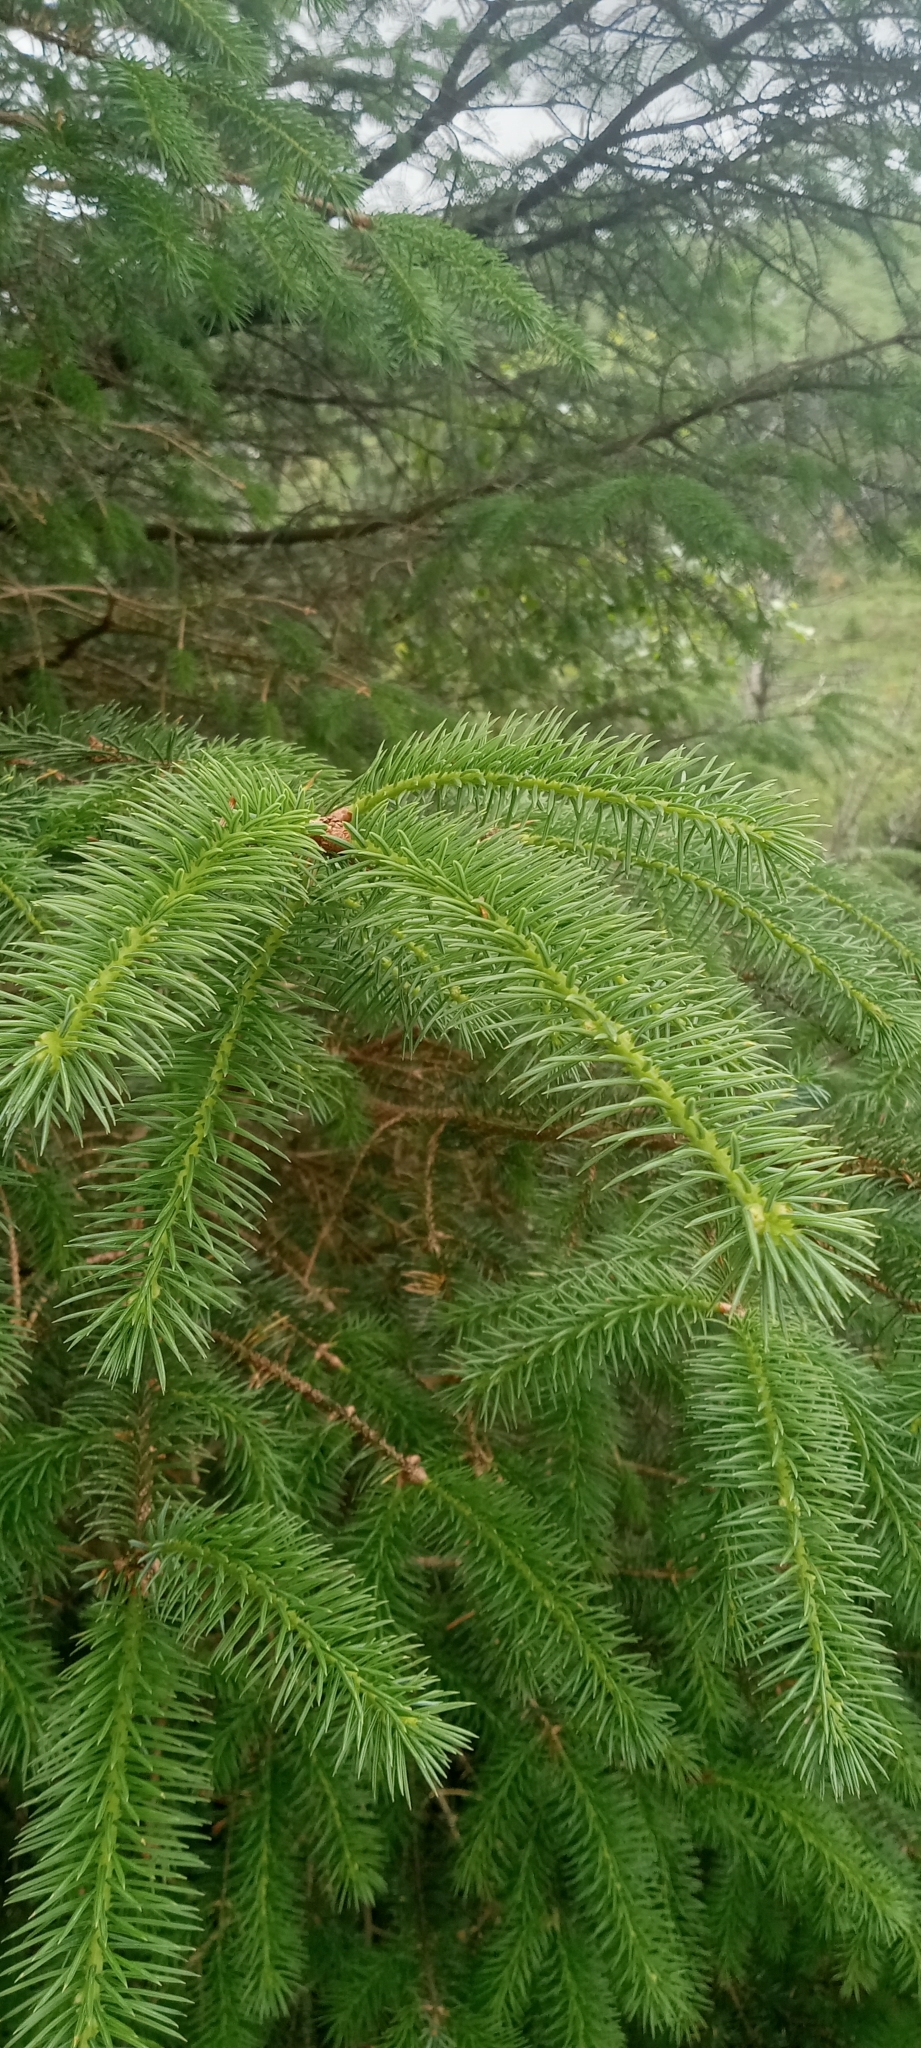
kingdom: Plantae
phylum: Tracheophyta
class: Pinopsida
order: Pinales
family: Pinaceae
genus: Picea
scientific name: Picea sitchensis
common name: Sitka spruce
